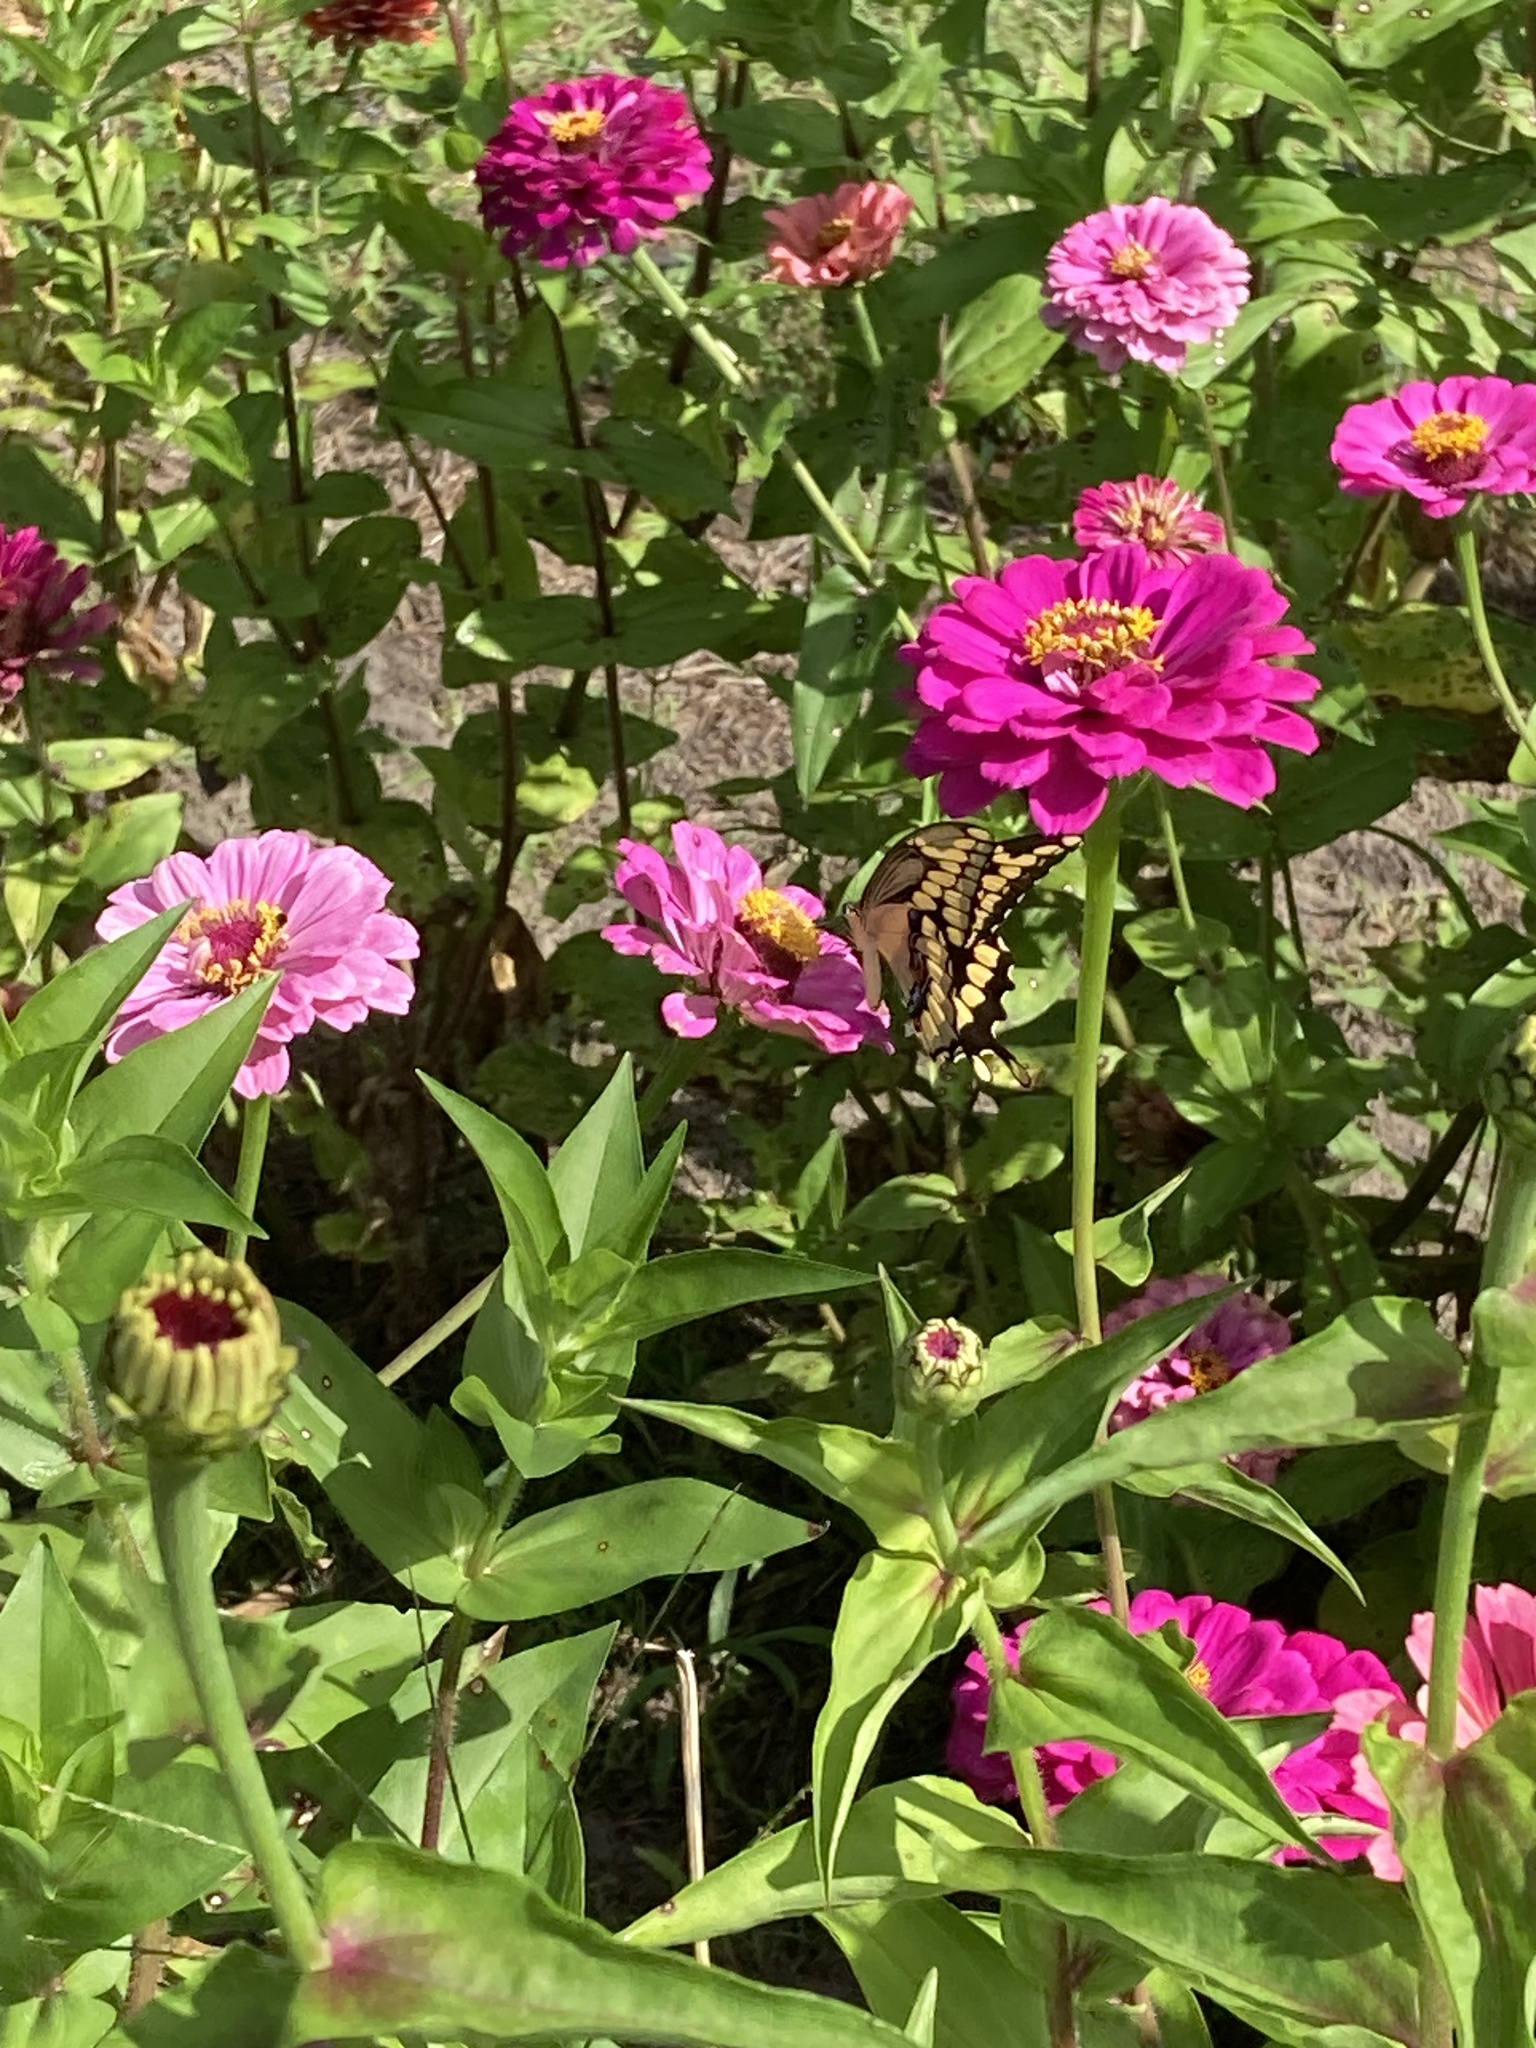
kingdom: Animalia
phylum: Arthropoda
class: Insecta
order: Lepidoptera
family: Papilionidae
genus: Papilio
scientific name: Papilio cresphontes
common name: Giant swallowtail
